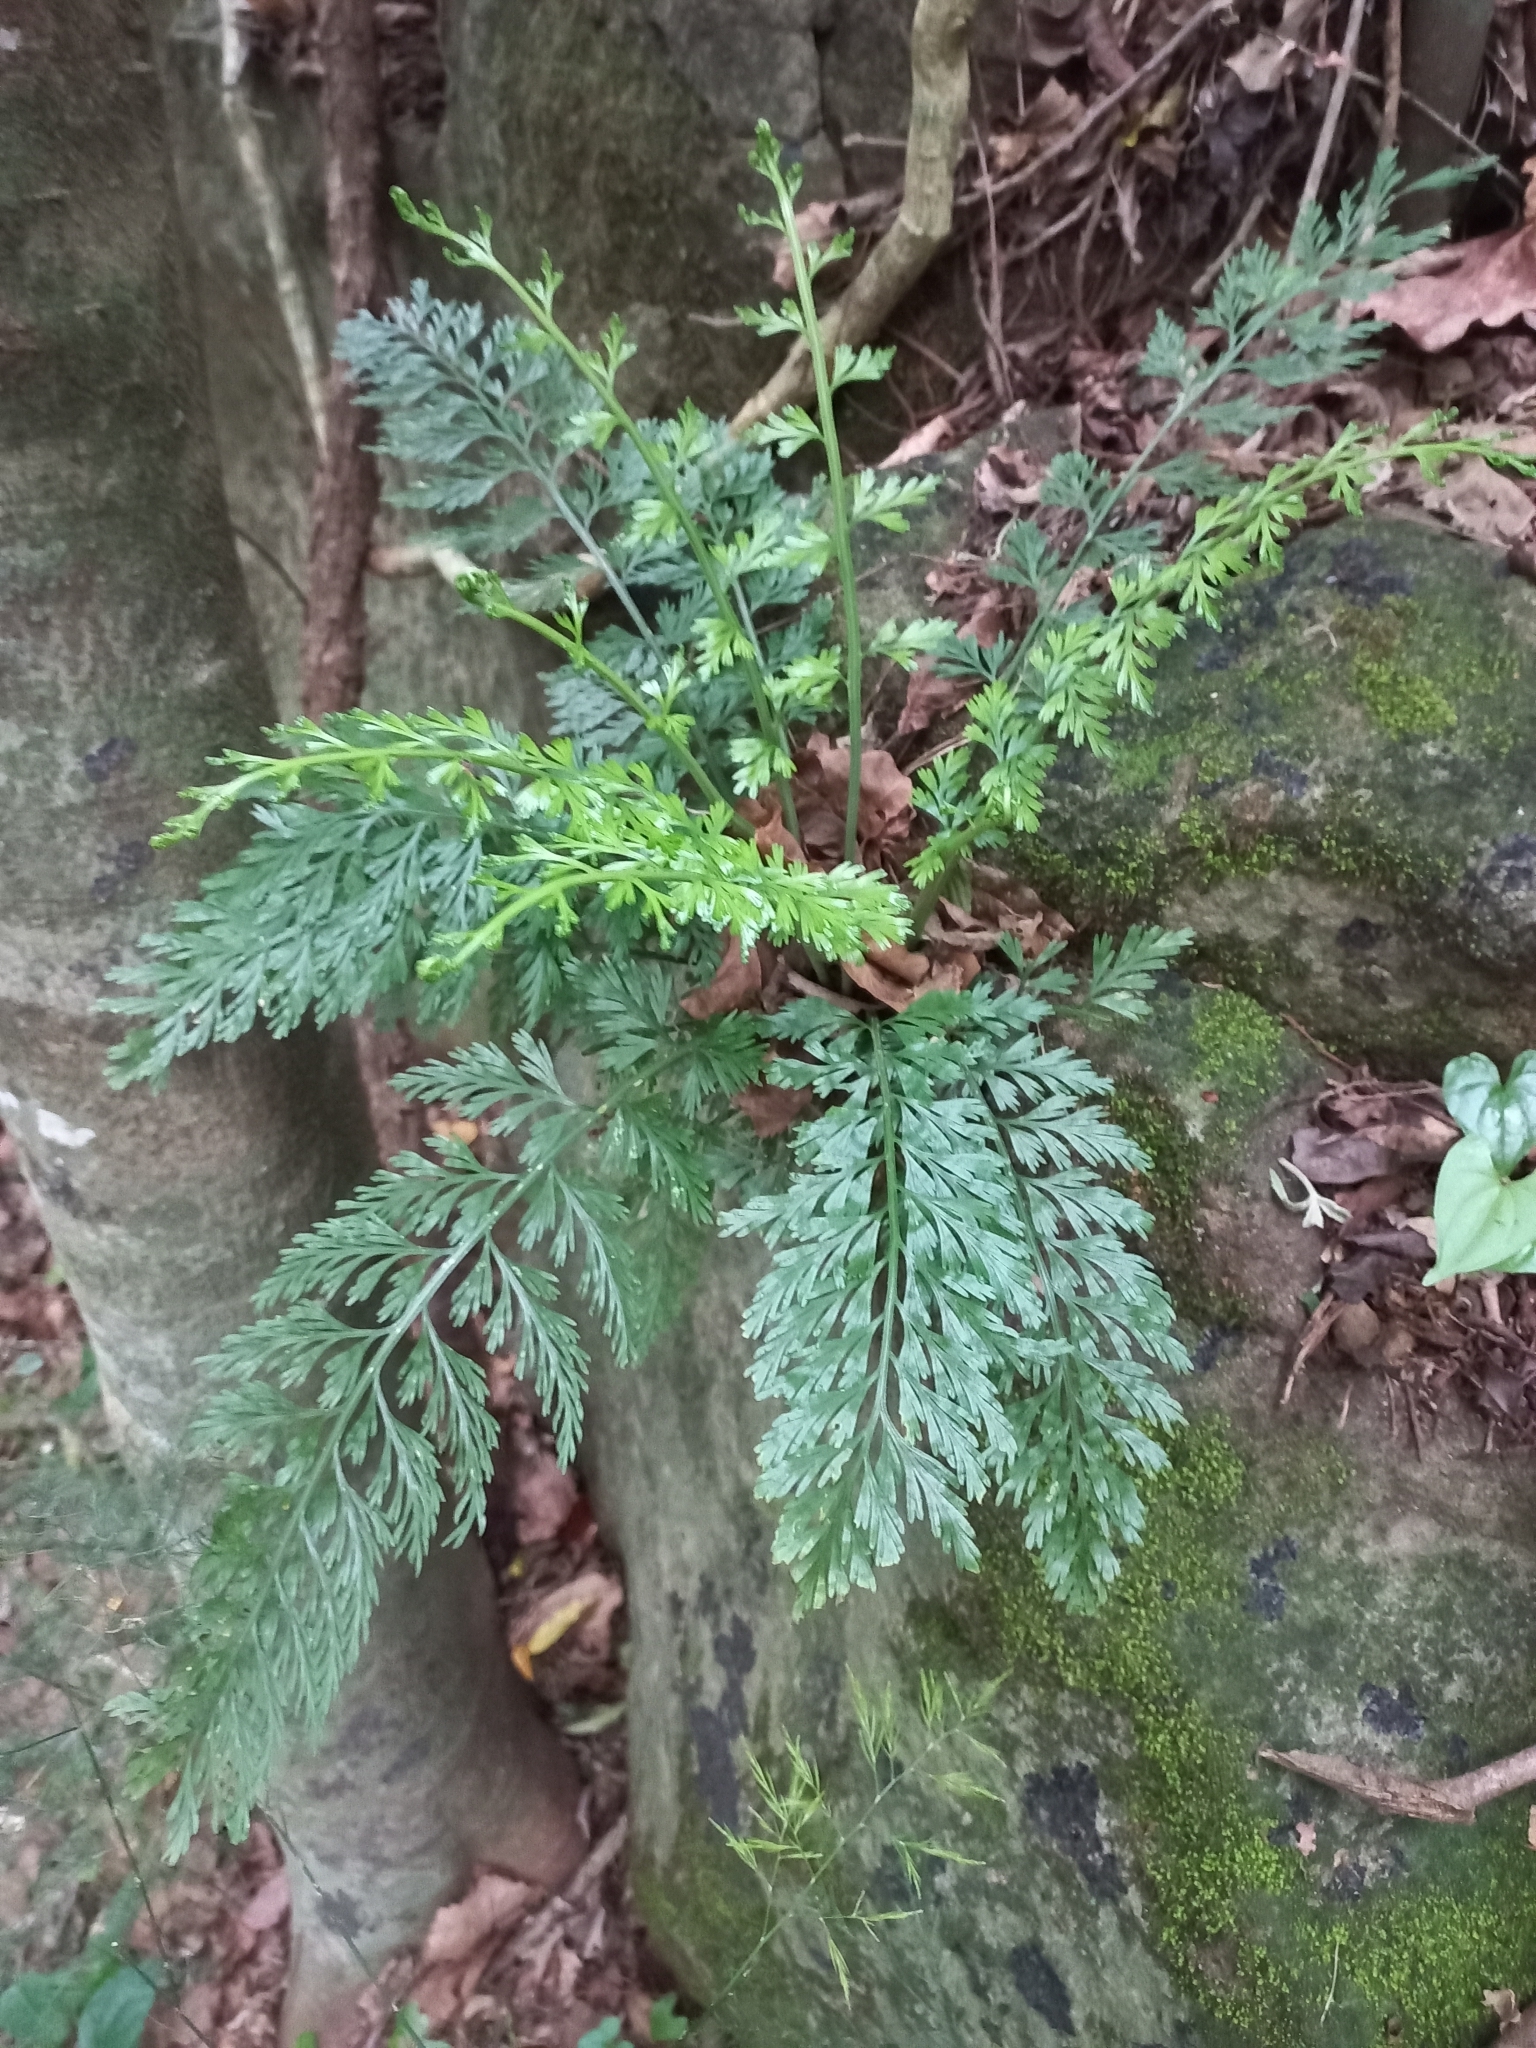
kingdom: Plantae
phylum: Tracheophyta
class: Polypodiopsida
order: Polypodiales
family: Aspleniaceae
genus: Asplenium
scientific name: Asplenium rutifolium
